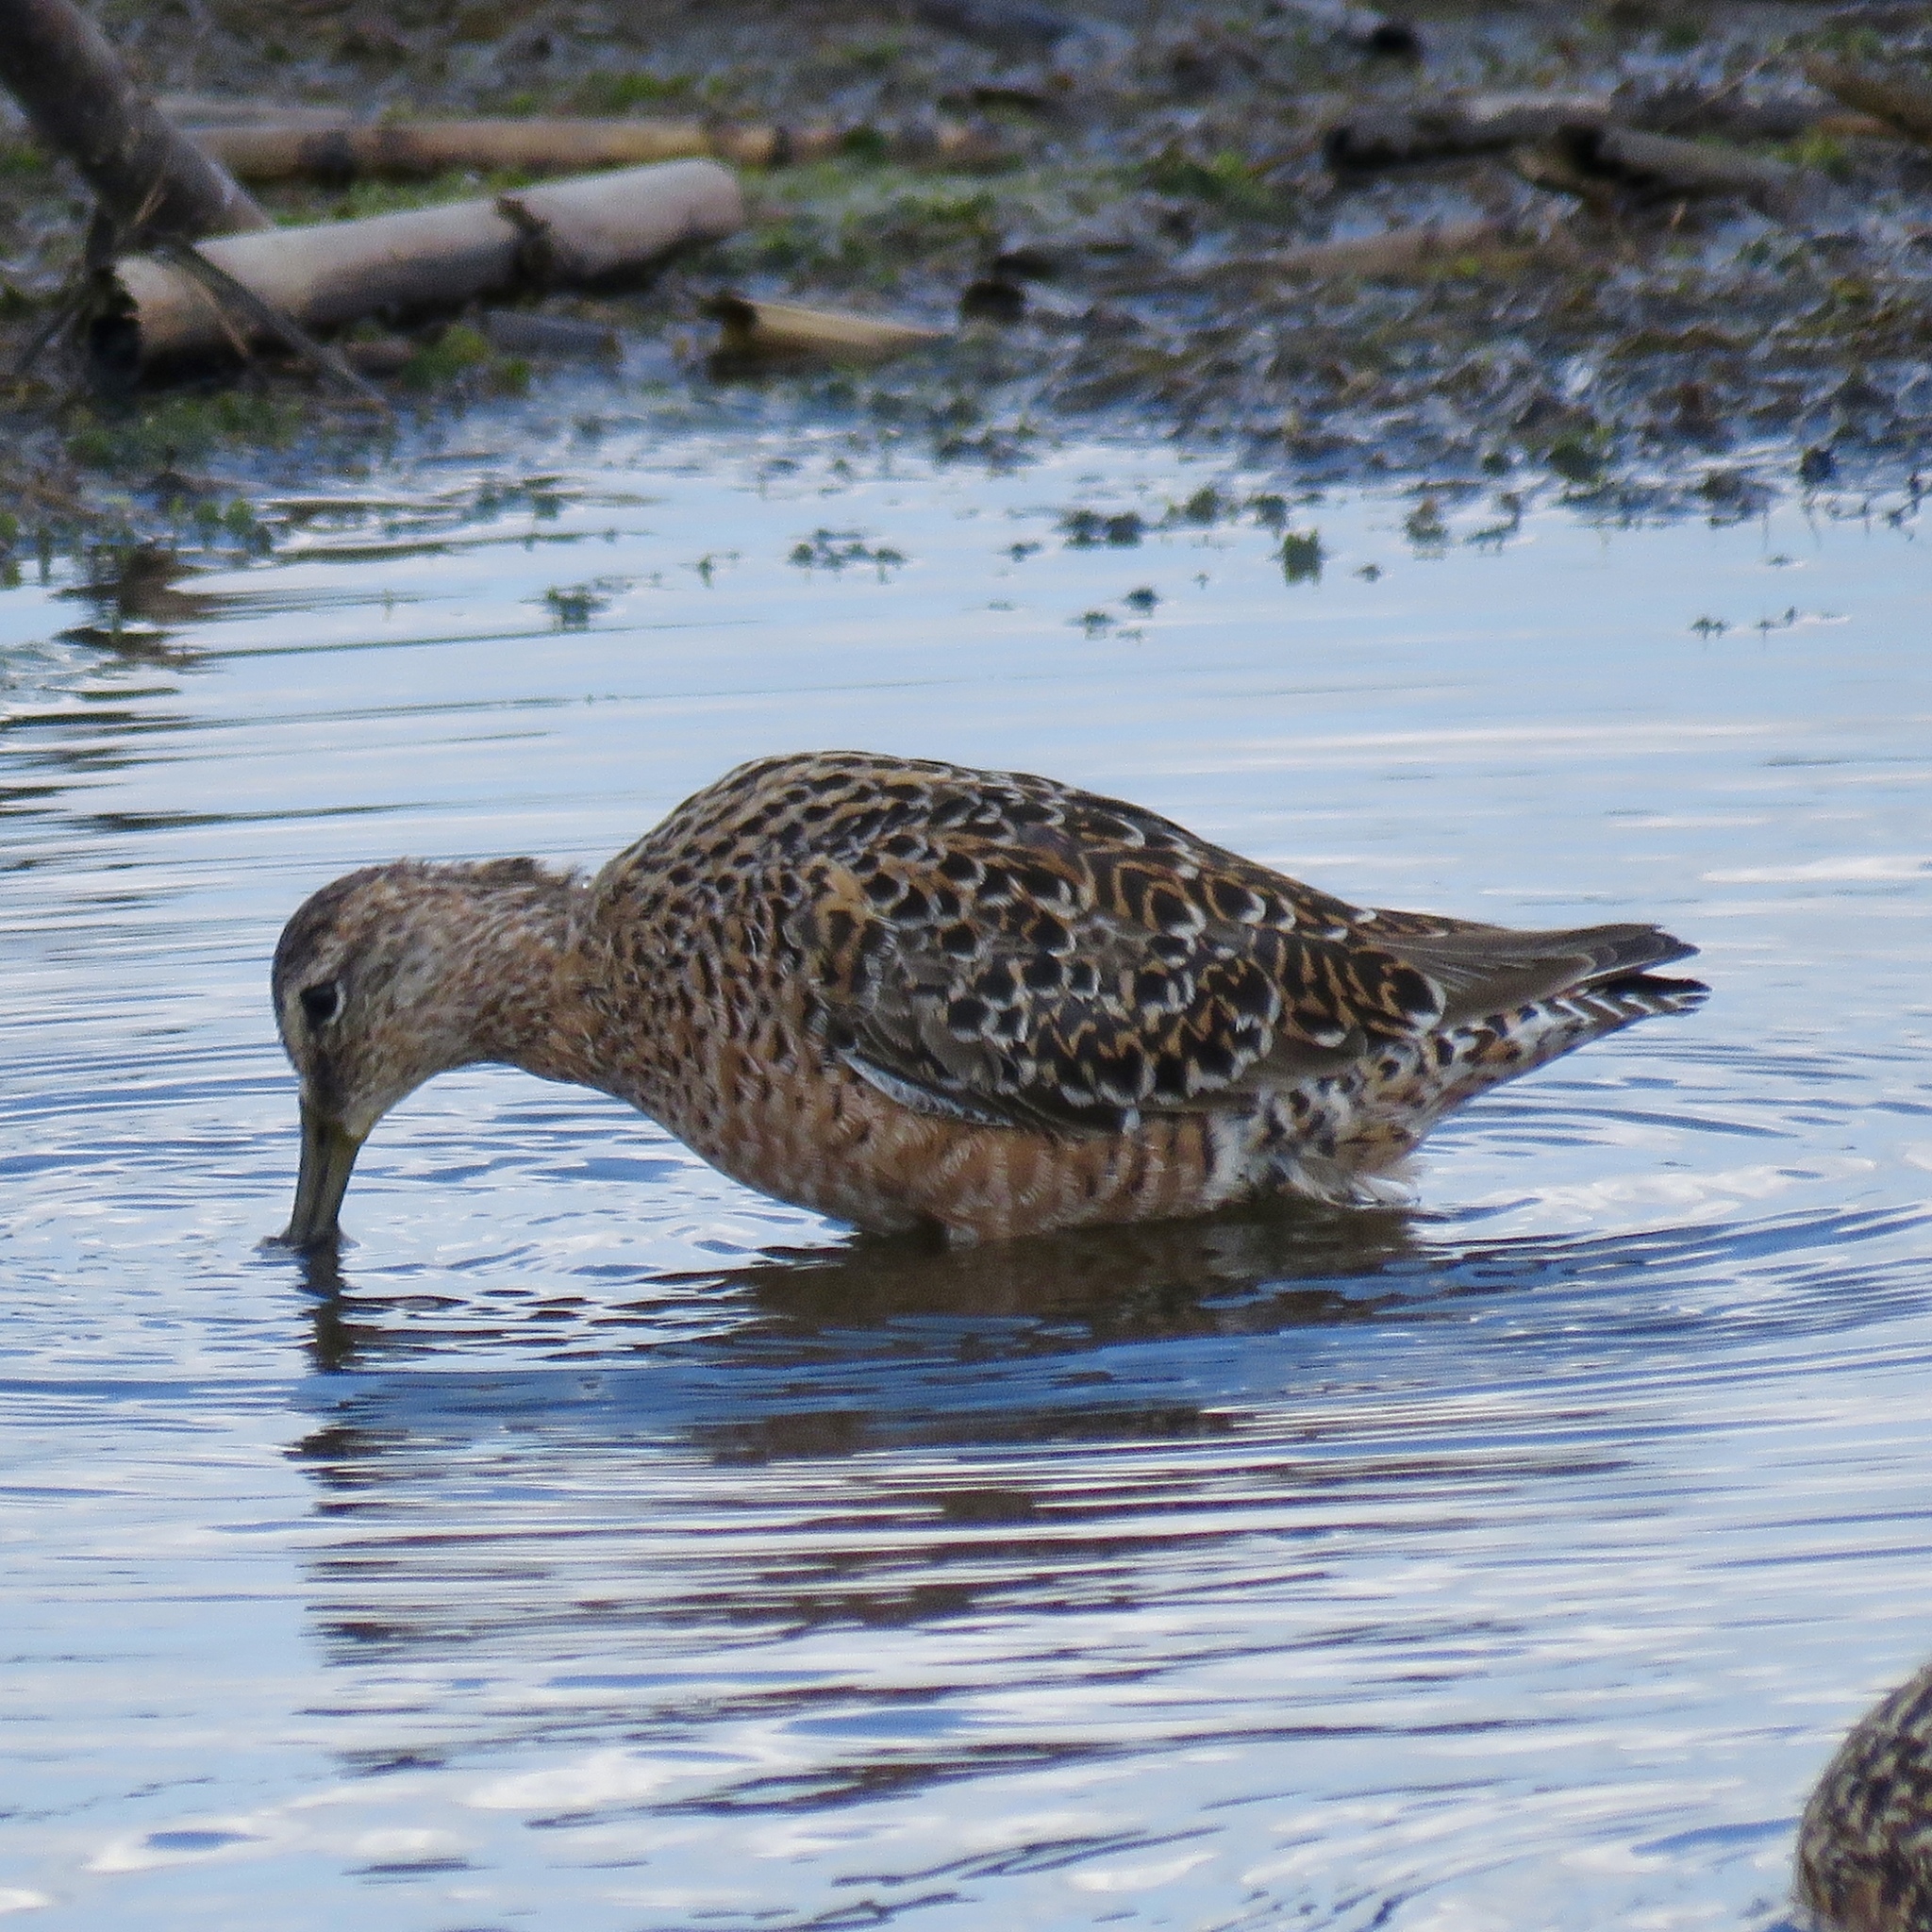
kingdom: Animalia
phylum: Chordata
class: Aves
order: Charadriiformes
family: Scolopacidae
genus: Limnodromus
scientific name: Limnodromus scolopaceus
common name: Long-billed dowitcher
